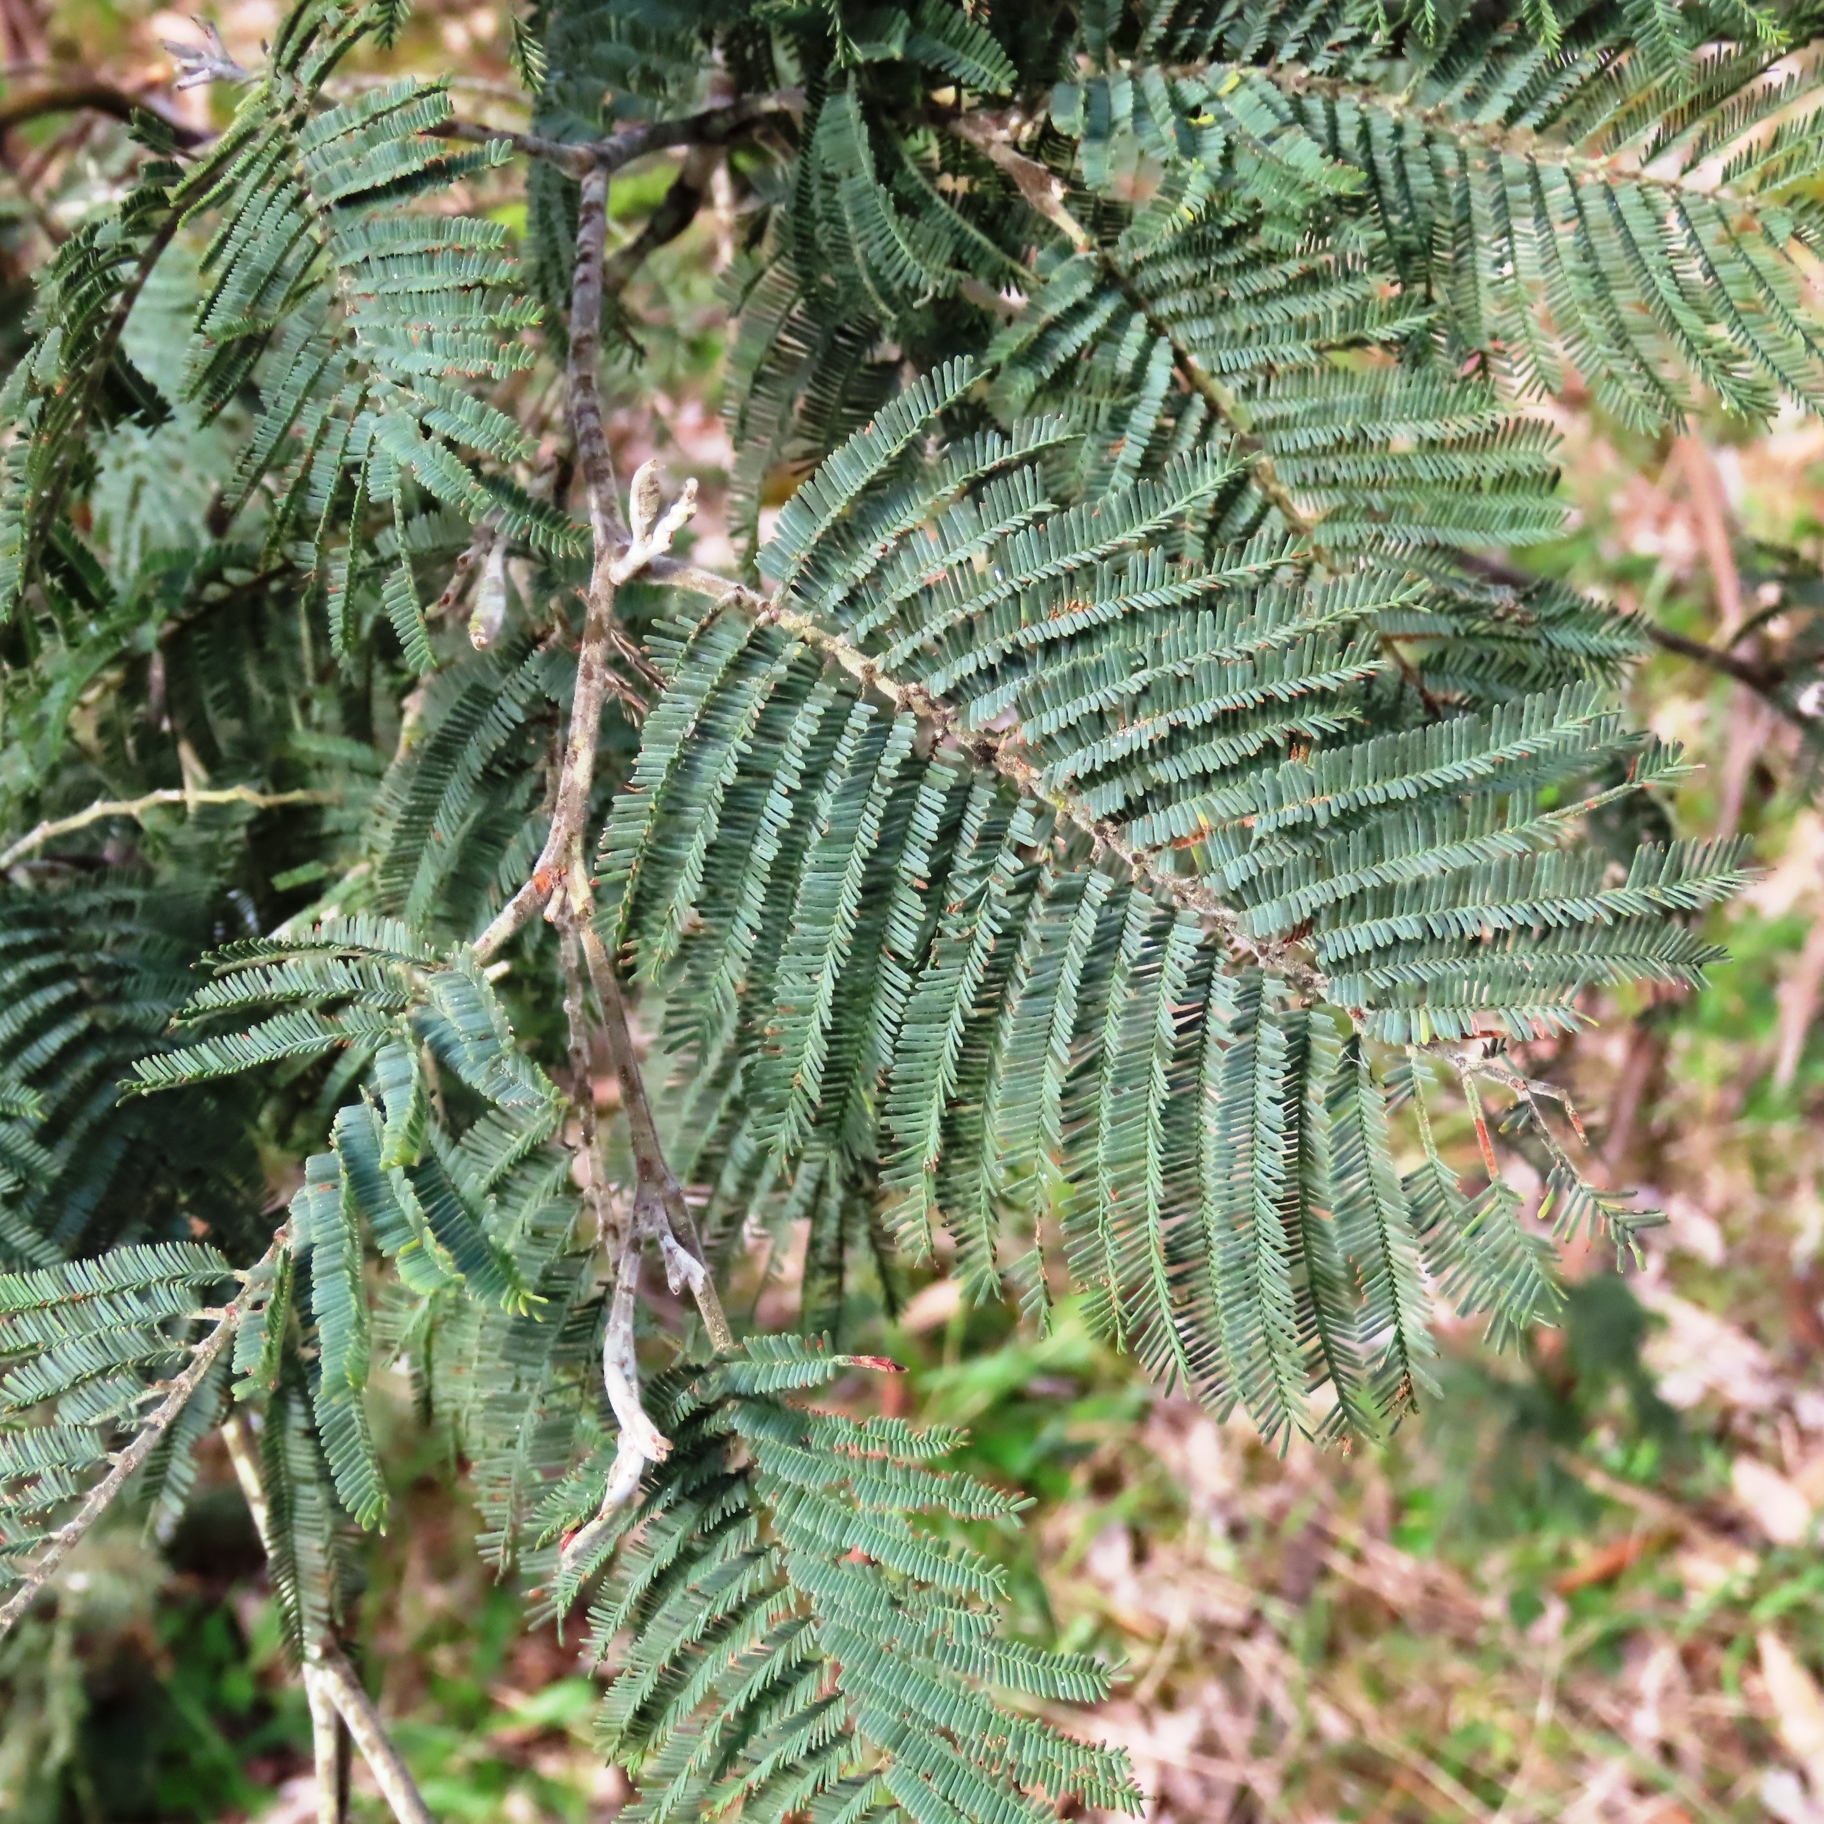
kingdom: Plantae
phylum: Tracheophyta
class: Magnoliopsida
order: Fabales
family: Fabaceae
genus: Acacia
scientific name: Acacia dealbata
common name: Silver wattle
